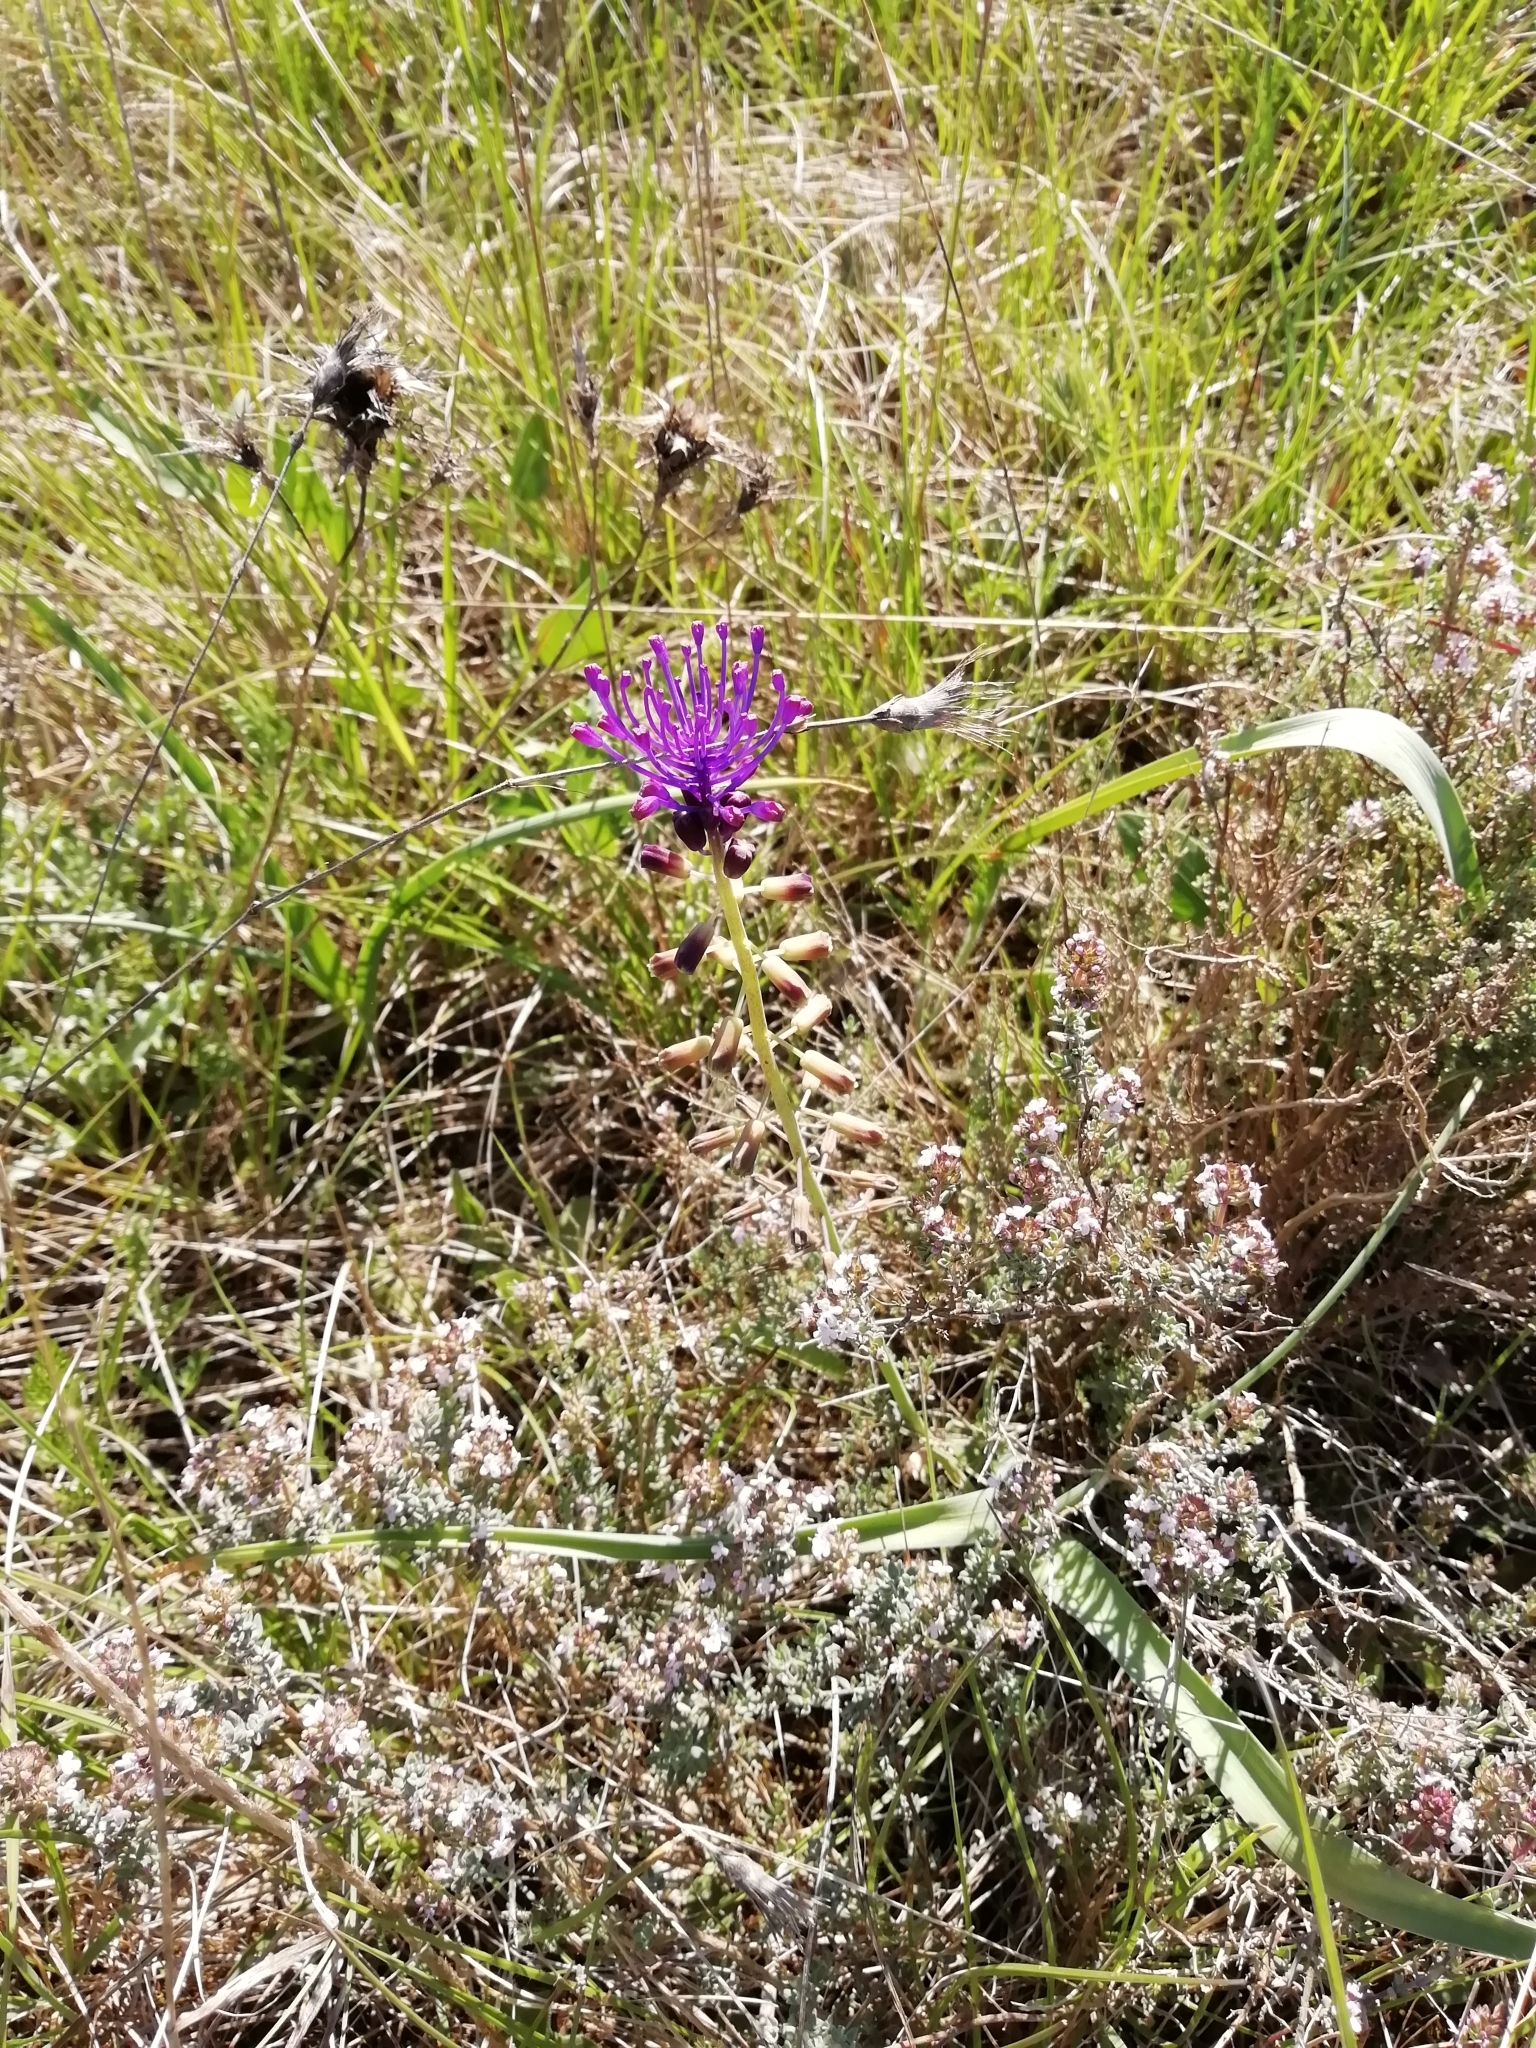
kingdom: Plantae
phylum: Tracheophyta
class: Liliopsida
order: Asparagales
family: Asparagaceae
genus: Muscari
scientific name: Muscari comosum
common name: Tassel hyacinth
